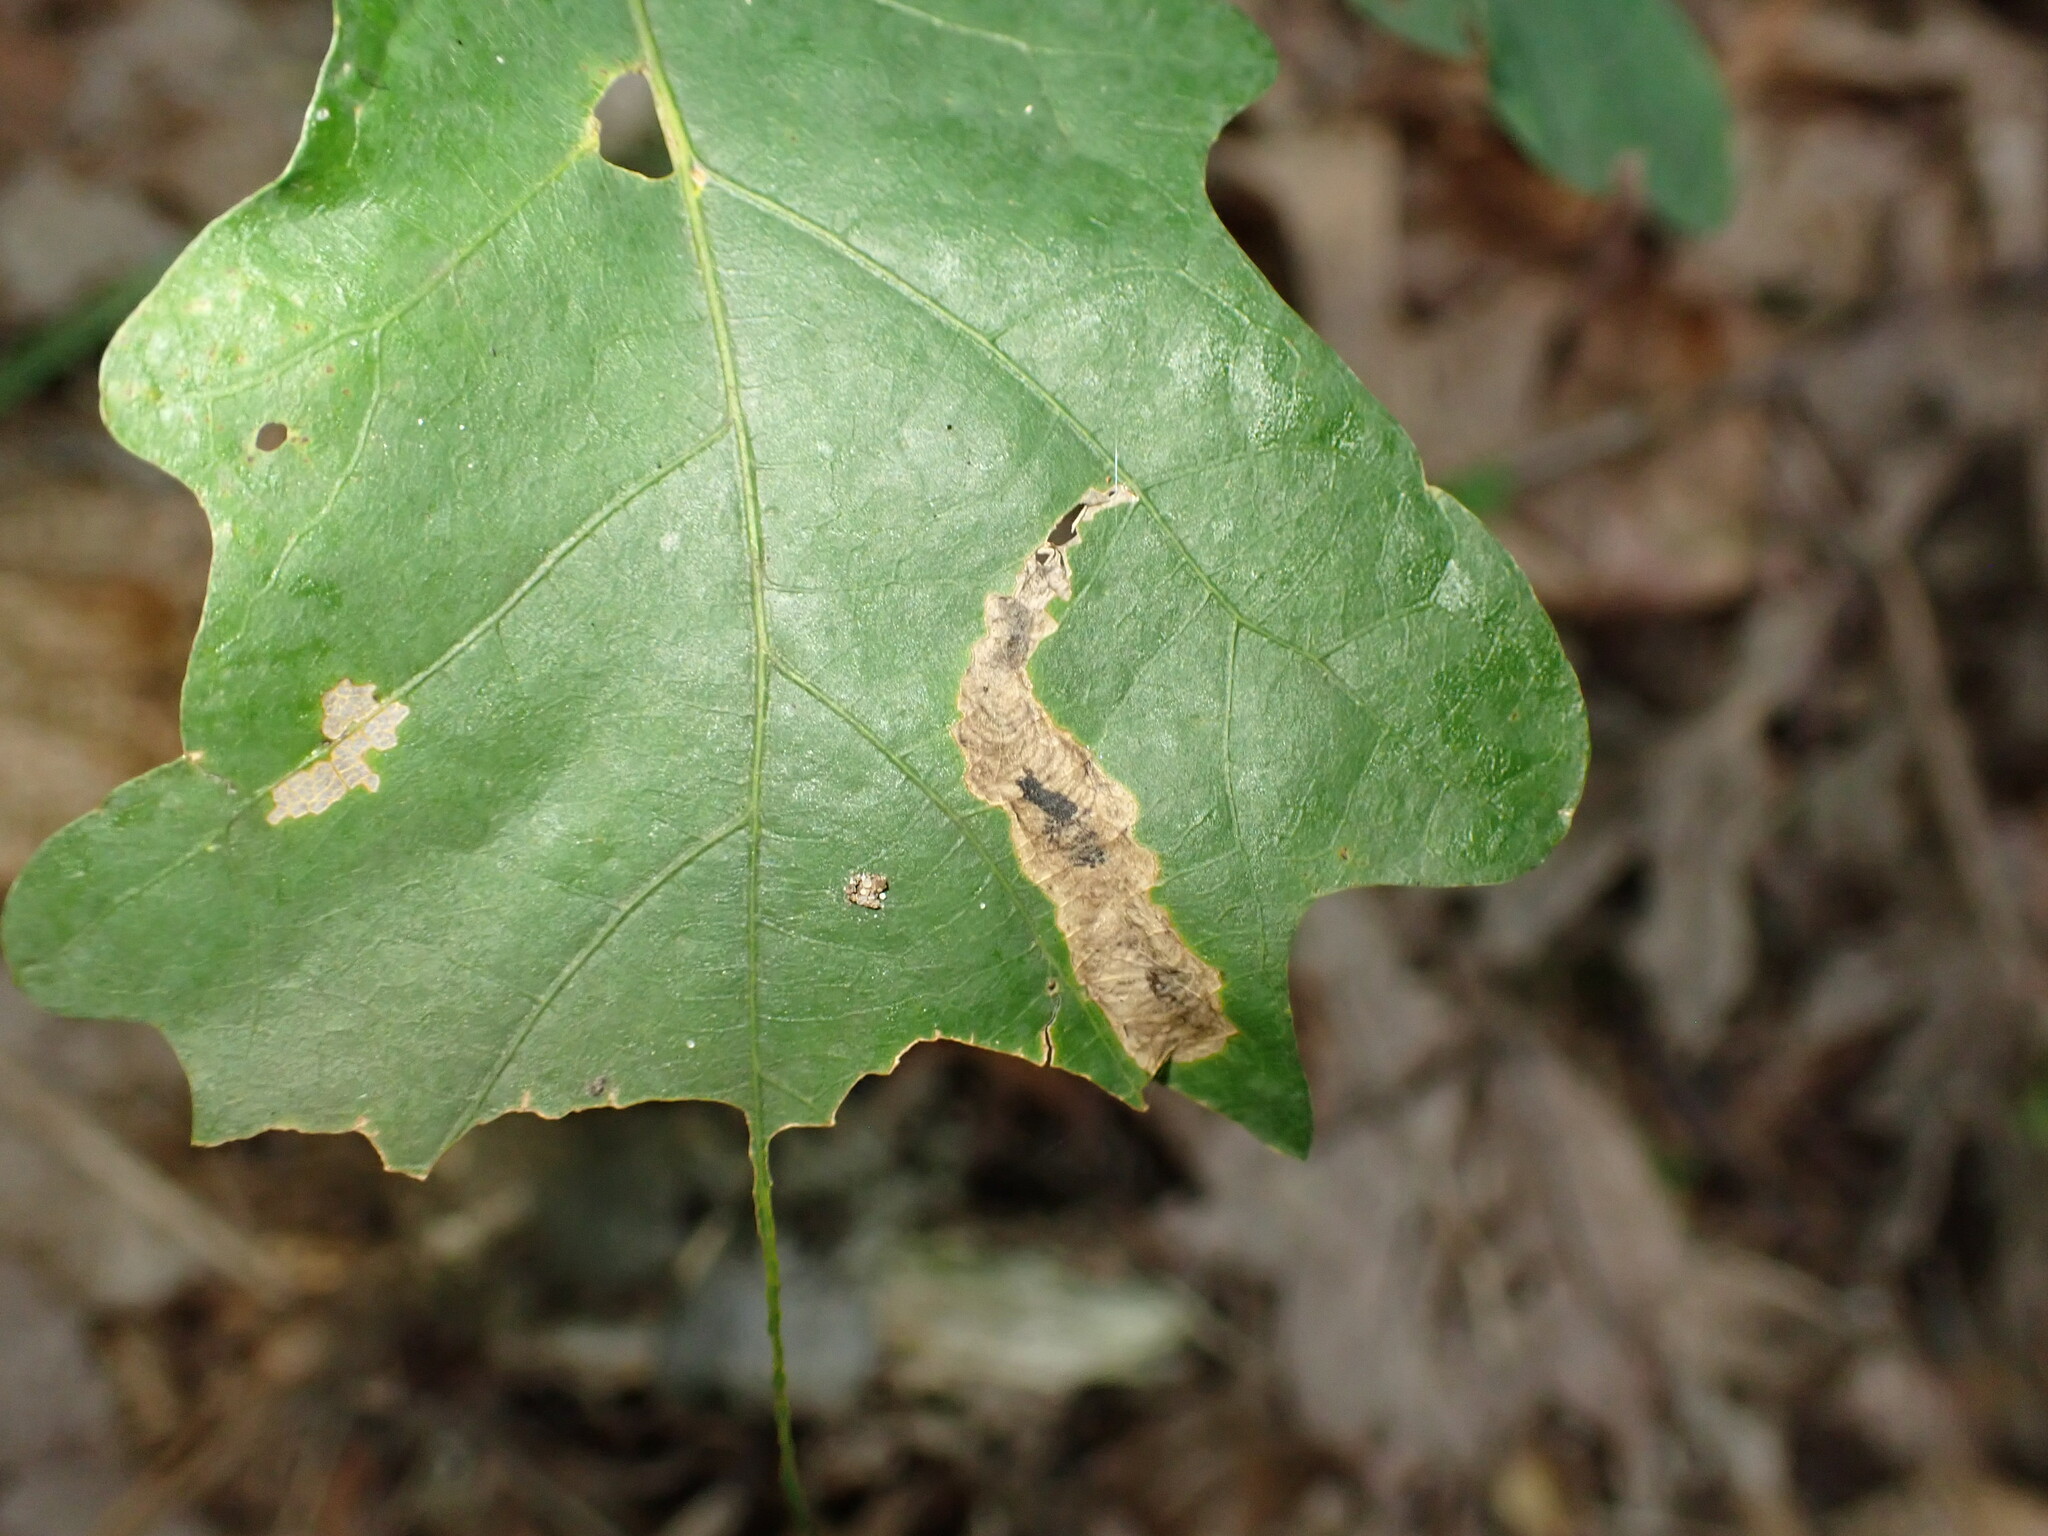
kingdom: Animalia
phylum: Arthropoda
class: Insecta
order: Lepidoptera
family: Tischeriidae
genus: Coptotriche
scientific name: Coptotriche castaneaeella
